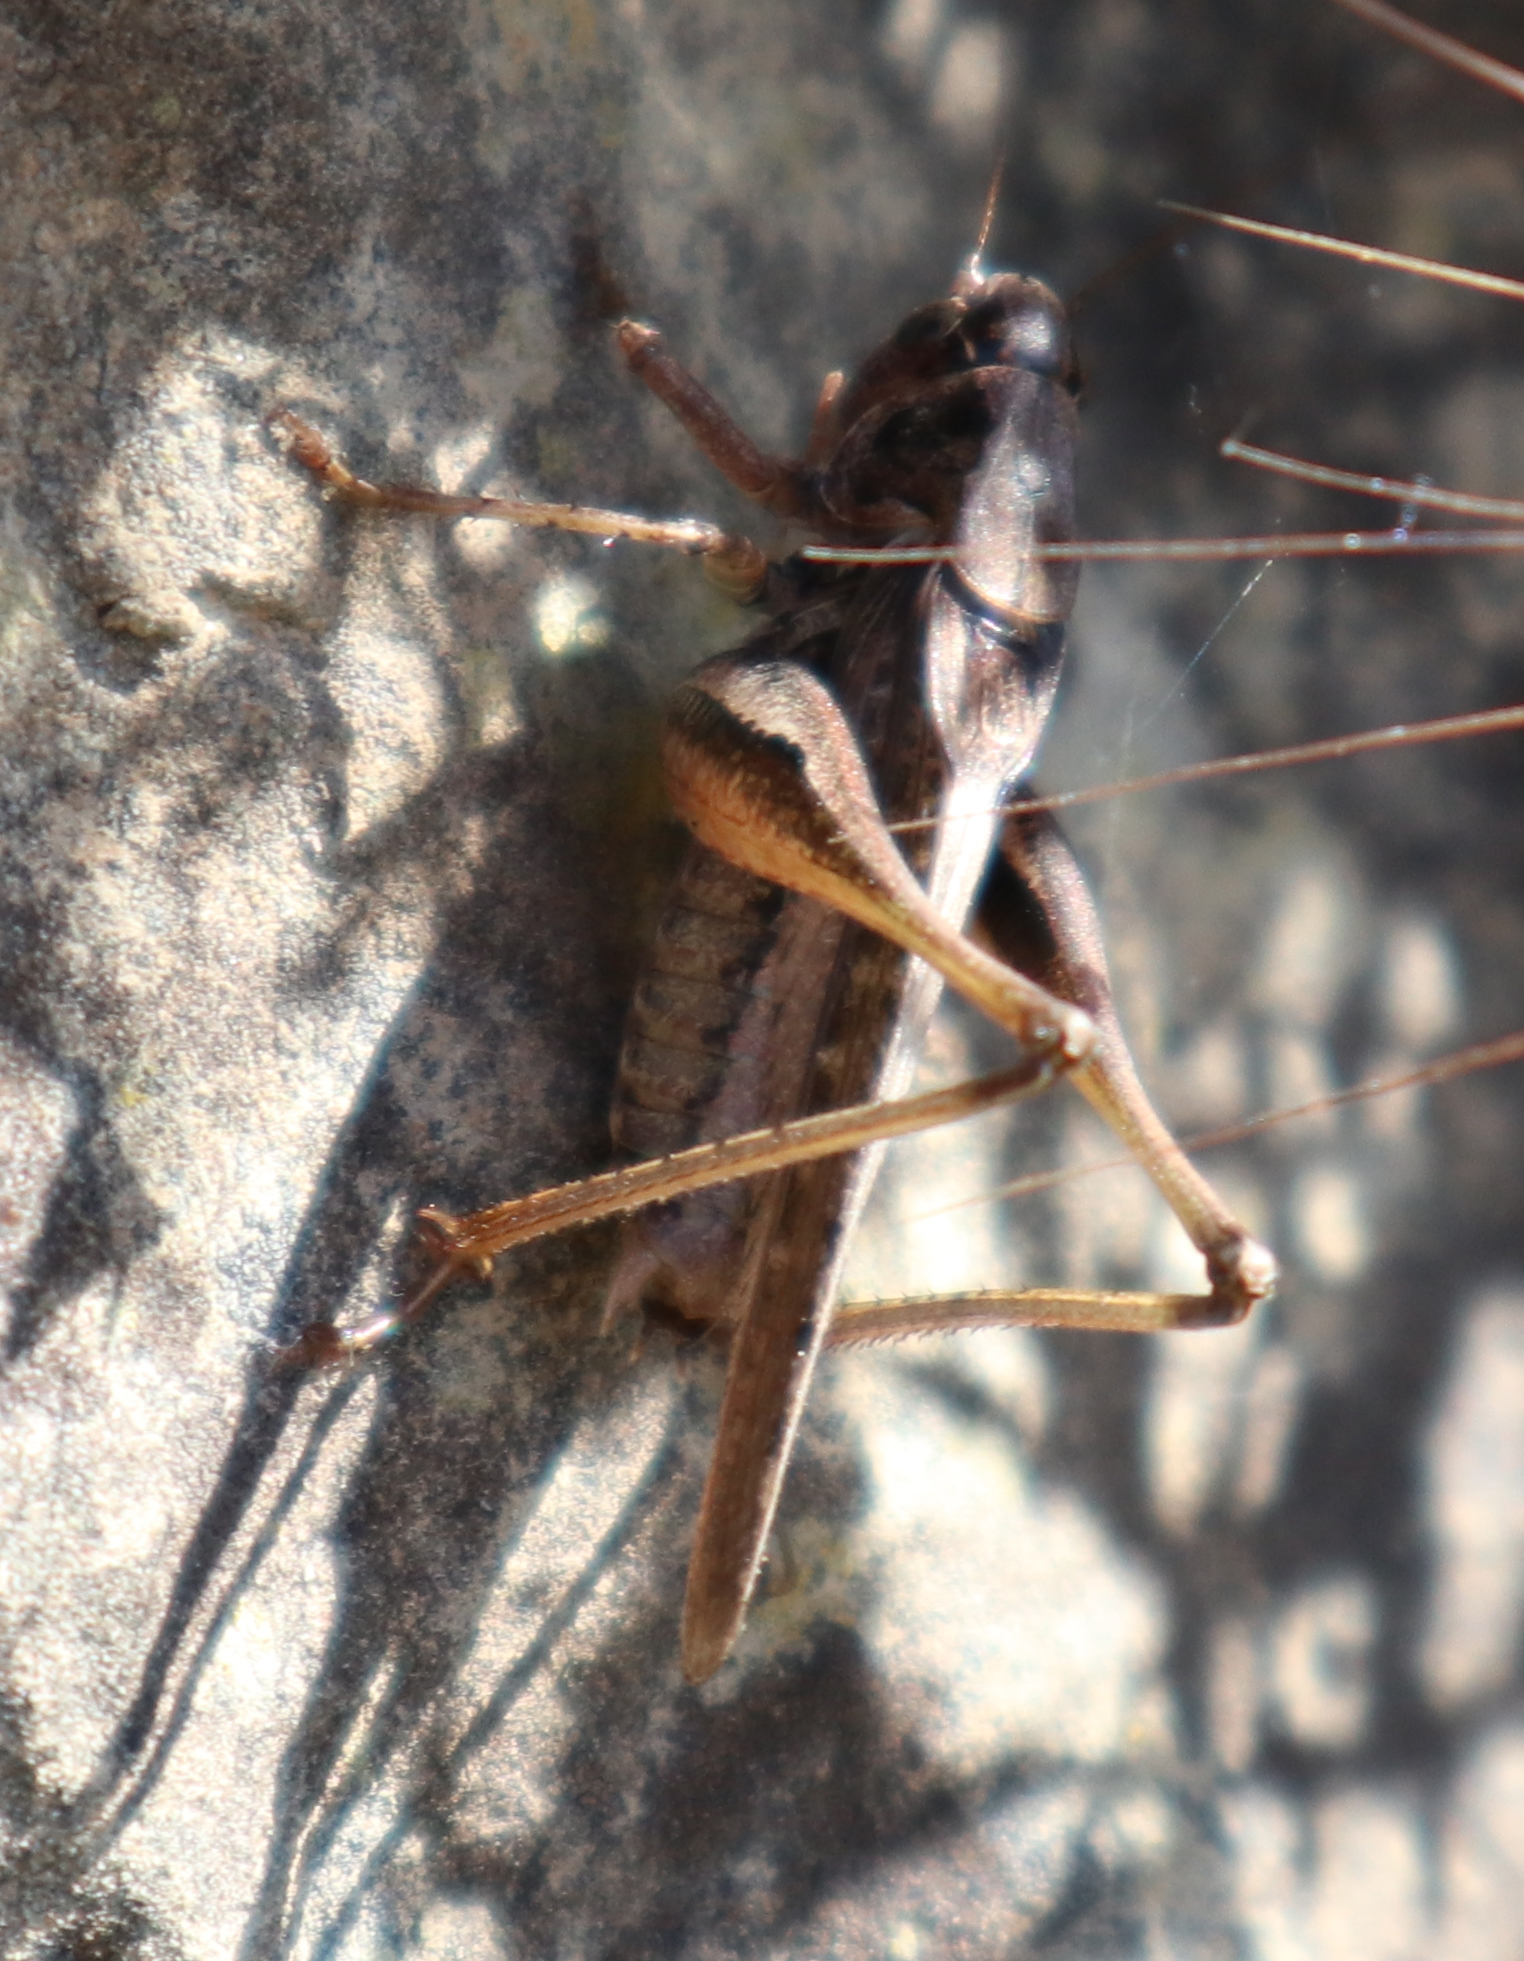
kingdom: Animalia
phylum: Arthropoda
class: Insecta
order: Orthoptera
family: Tettigoniidae
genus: Platycleis
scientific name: Platycleis albopunctata
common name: Grey bush-cricket
